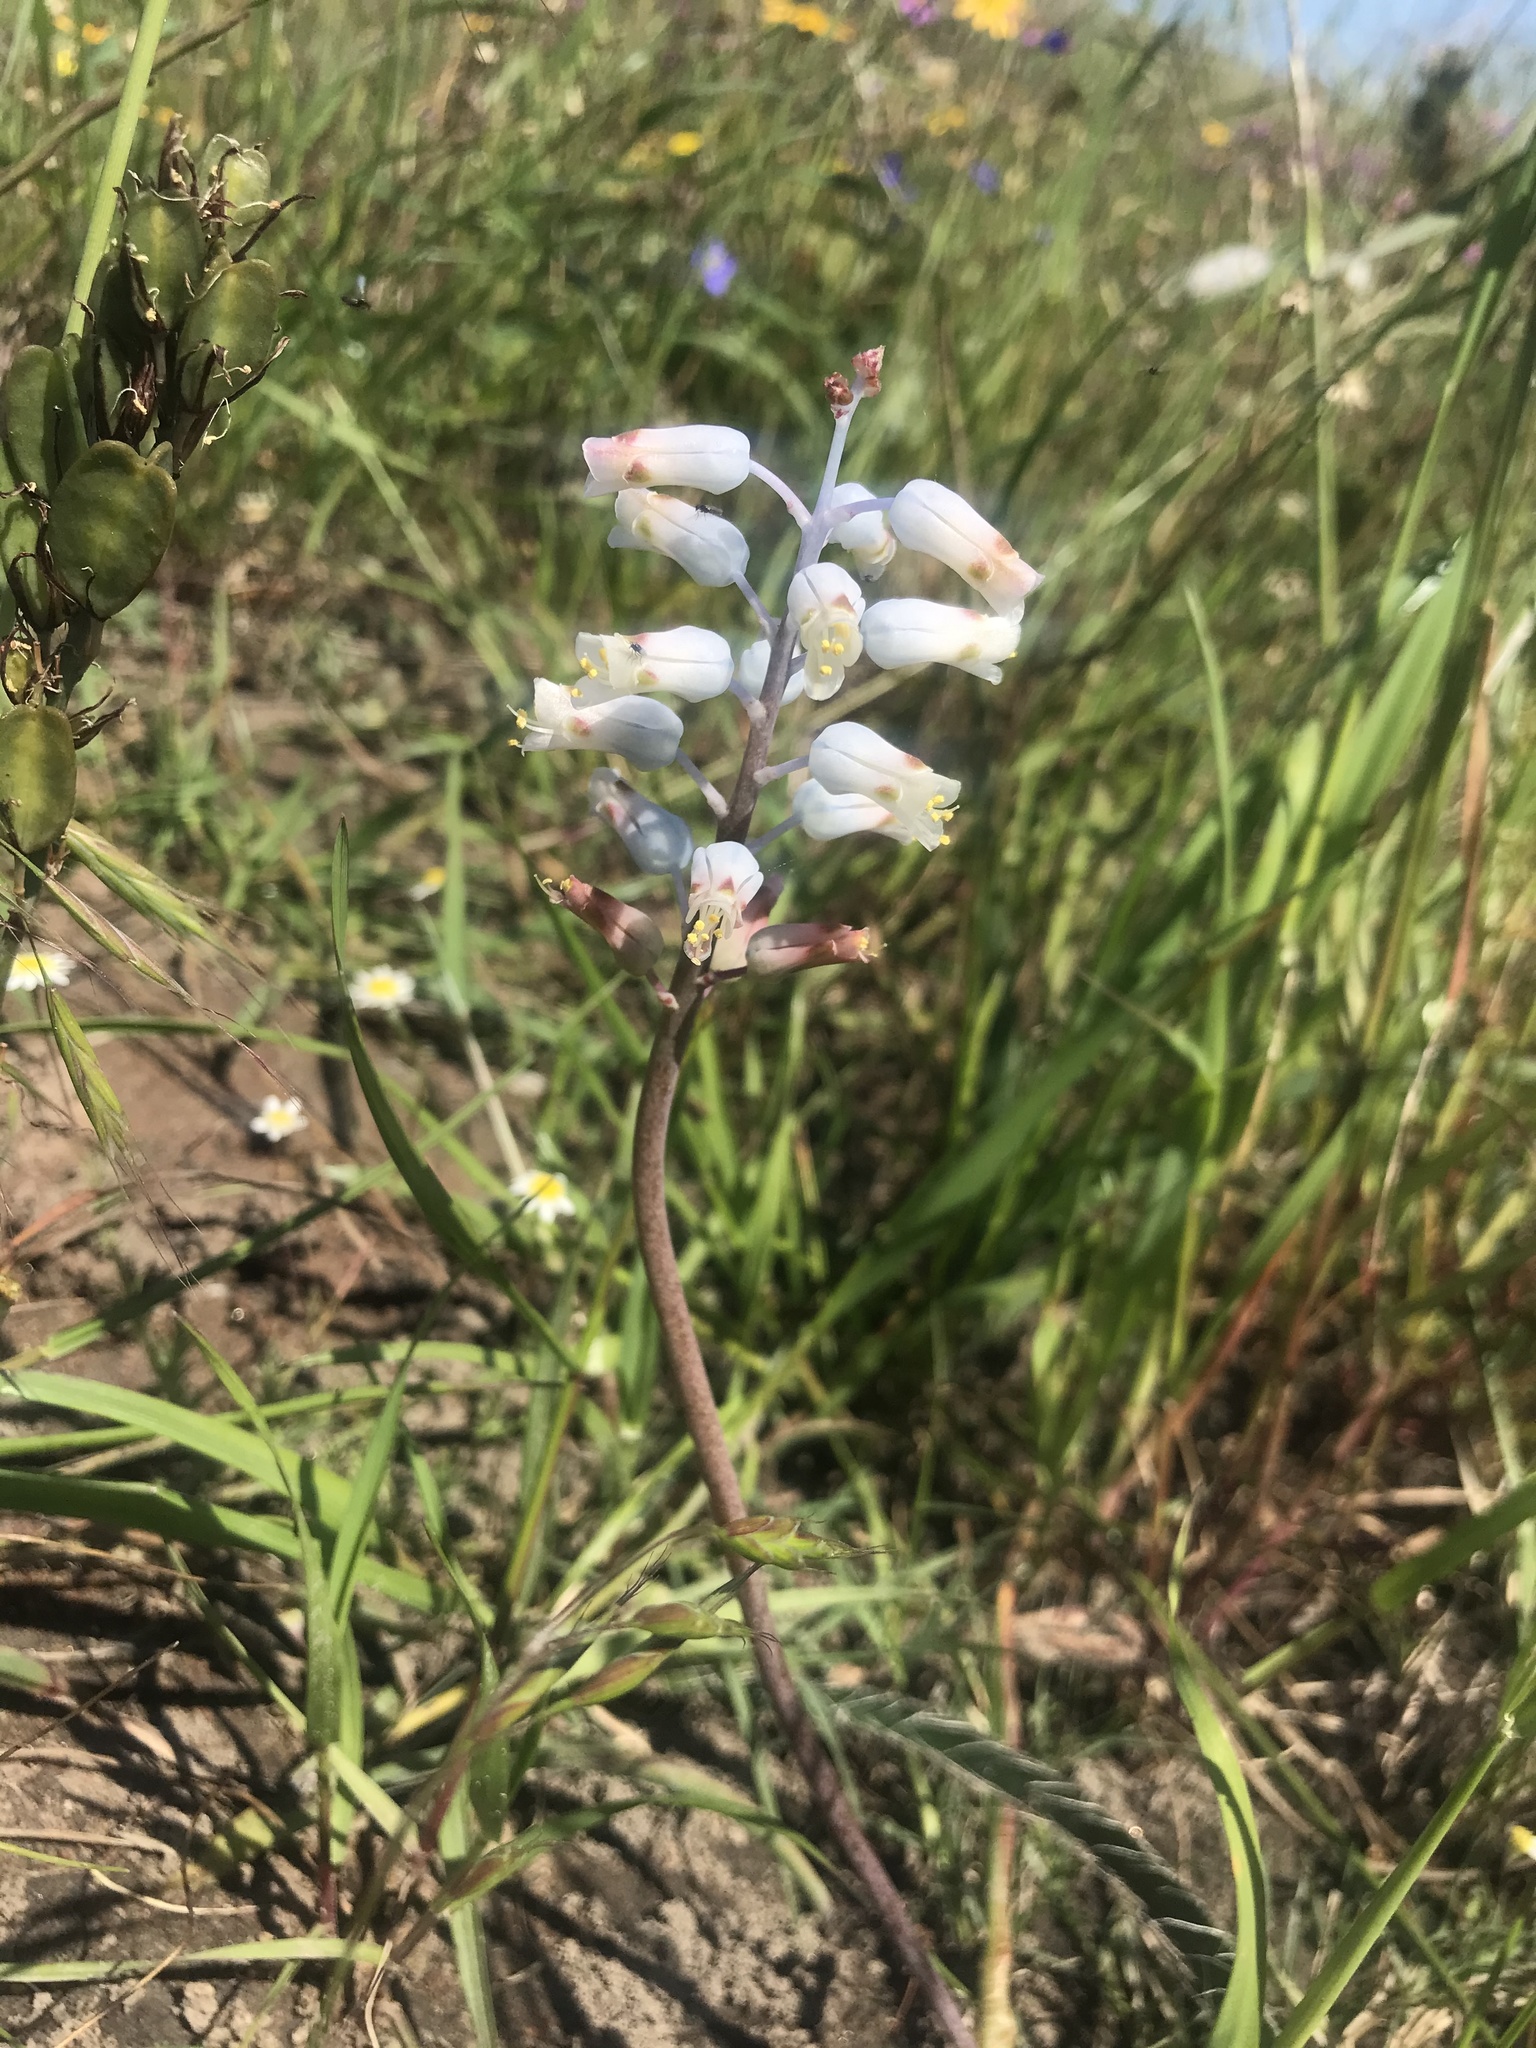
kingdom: Plantae
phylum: Tracheophyta
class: Liliopsida
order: Asparagales
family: Asparagaceae
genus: Lachenalia
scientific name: Lachenalia unifolia
